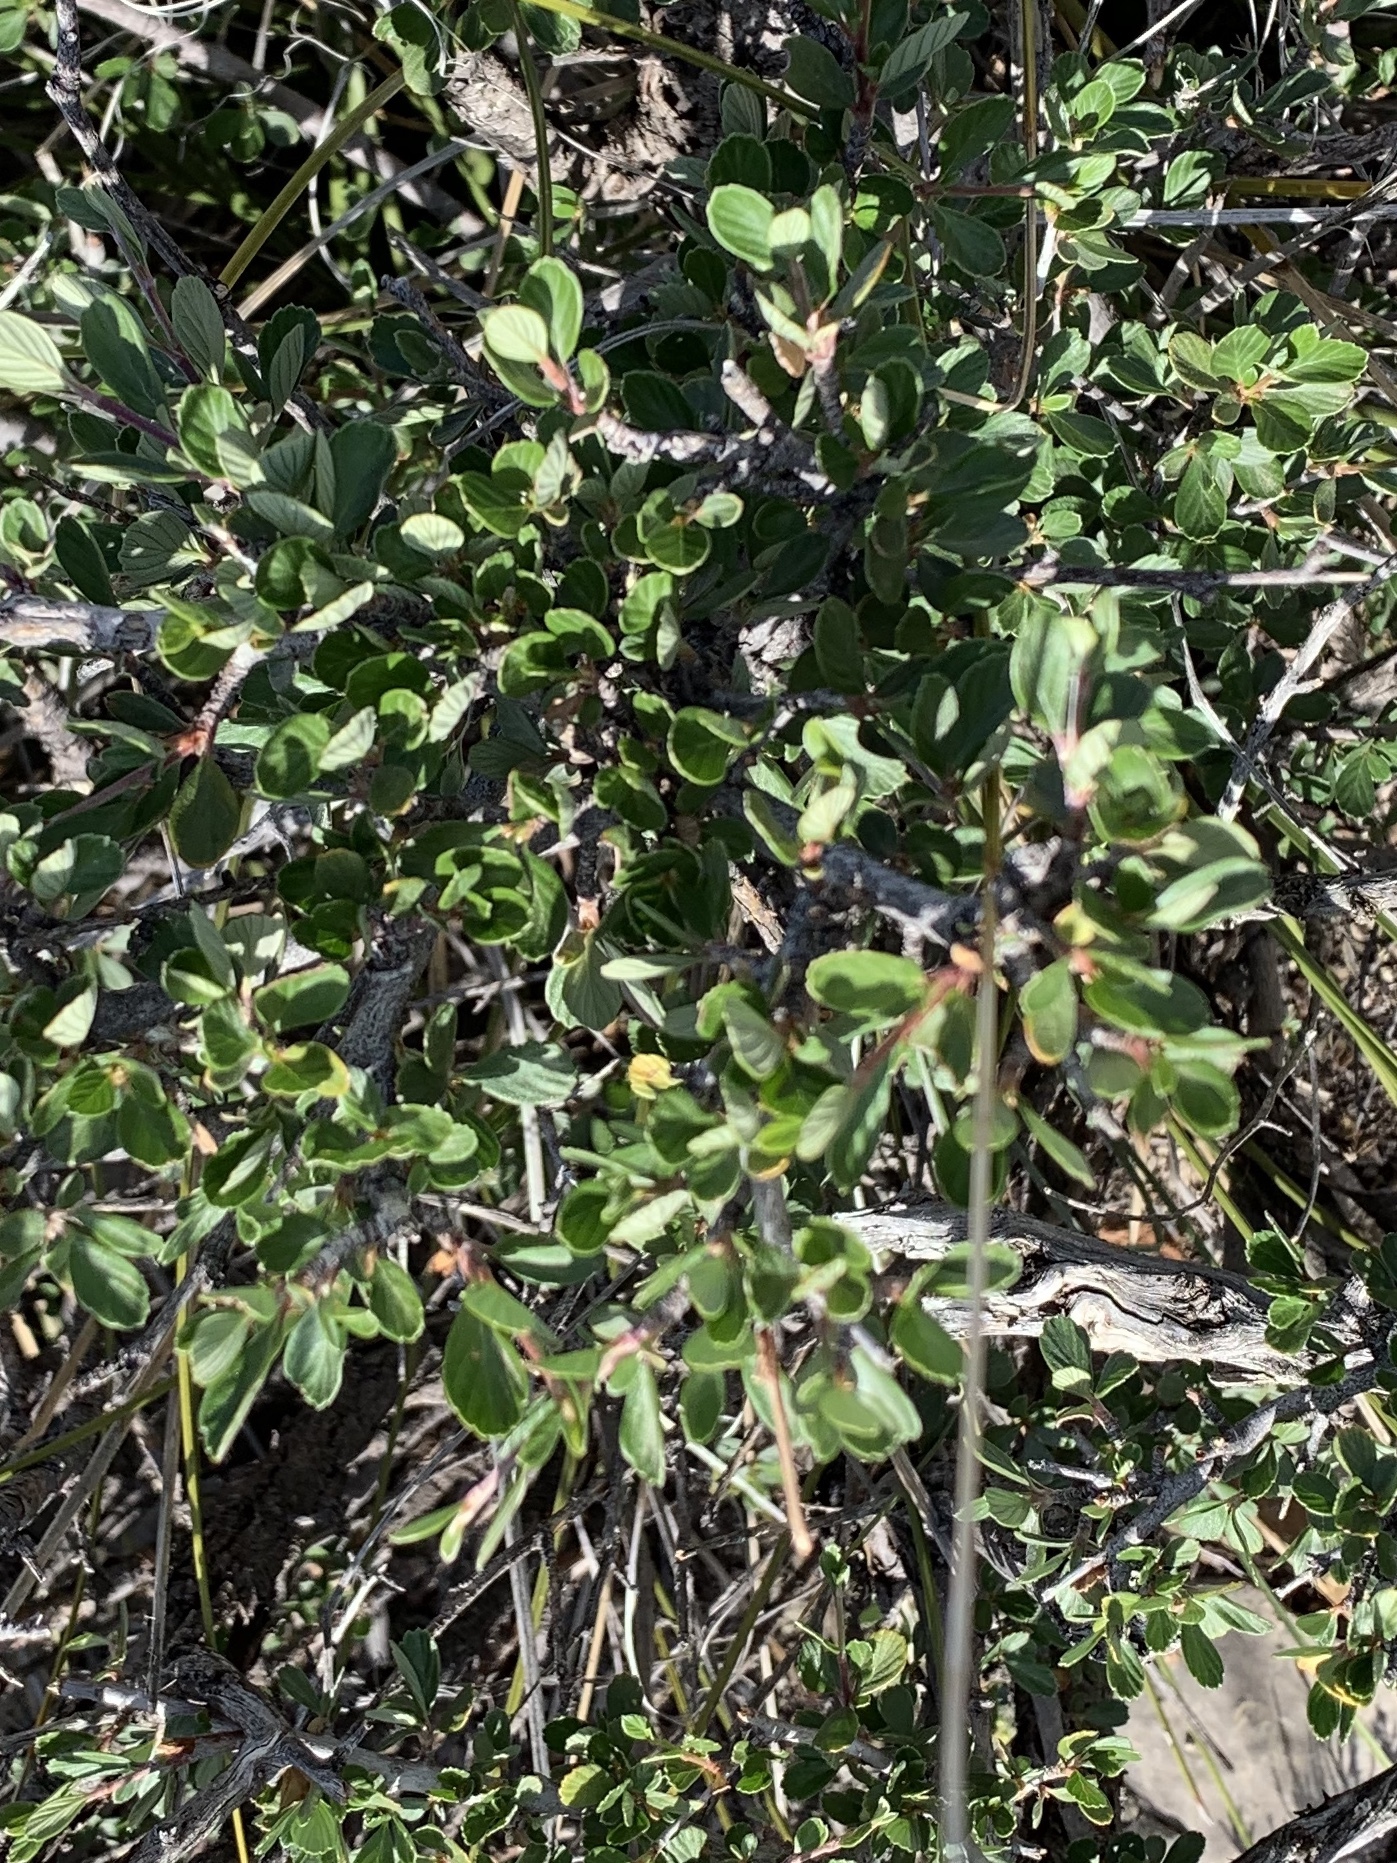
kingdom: Plantae
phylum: Tracheophyta
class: Magnoliopsida
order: Rosales
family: Rosaceae
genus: Cercocarpus
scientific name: Cercocarpus breviflorus
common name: Wright's mountain-mahogany
